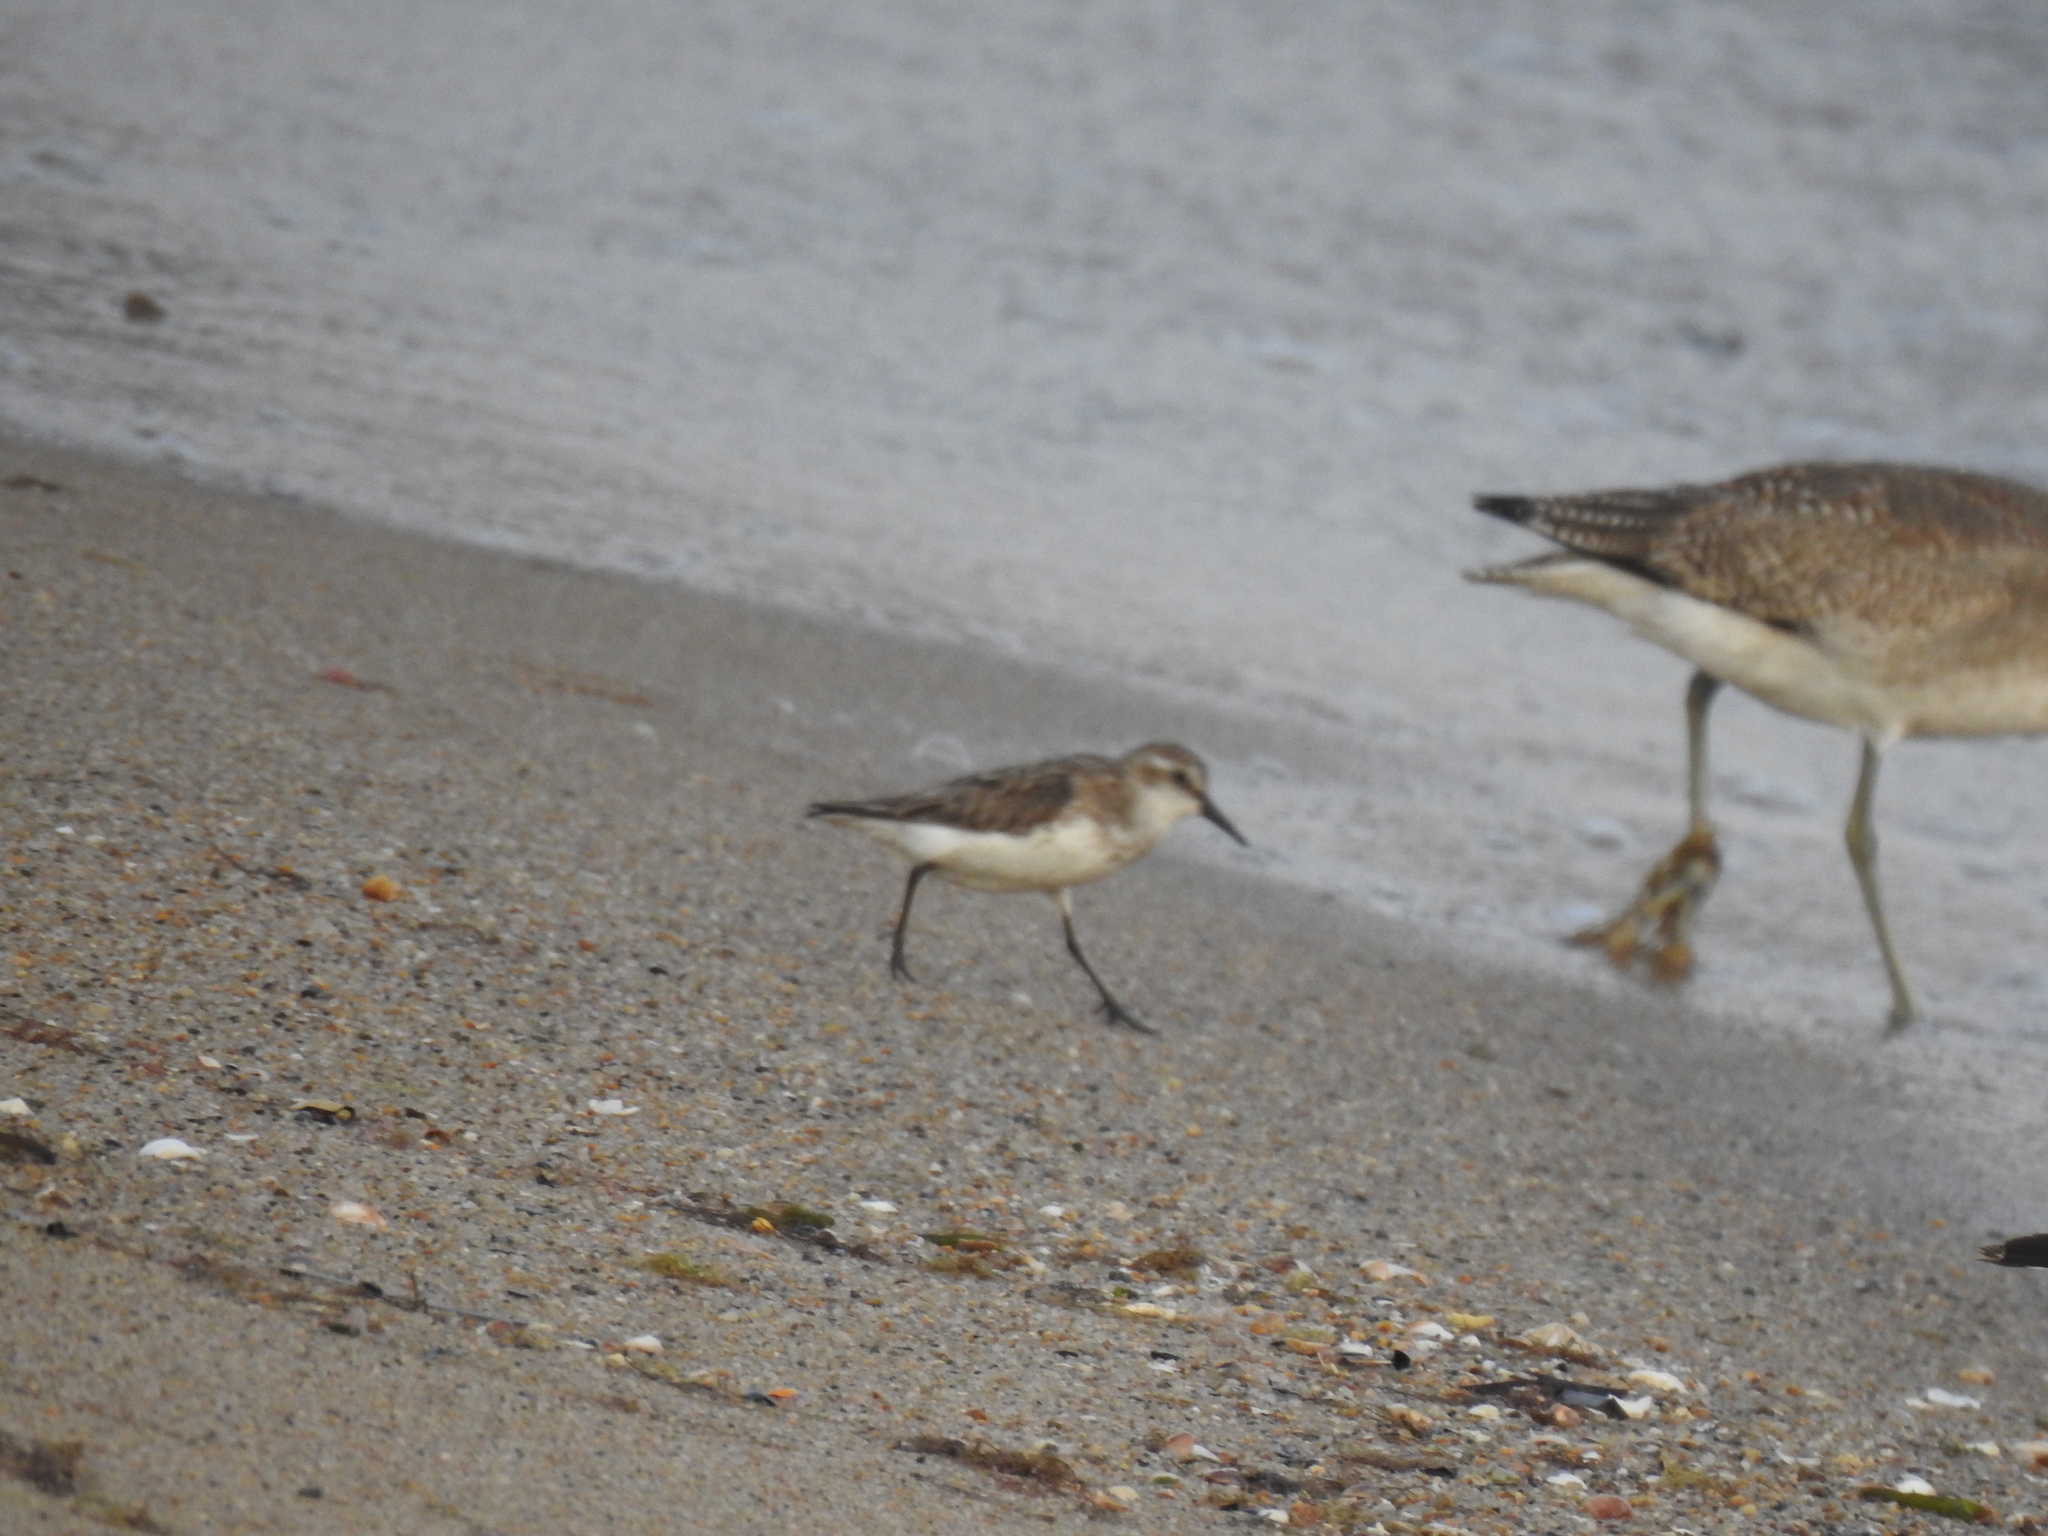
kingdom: Animalia
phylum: Chordata
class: Aves
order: Charadriiformes
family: Scolopacidae
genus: Calidris
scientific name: Calidris pusilla
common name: Semipalmated sandpiper
